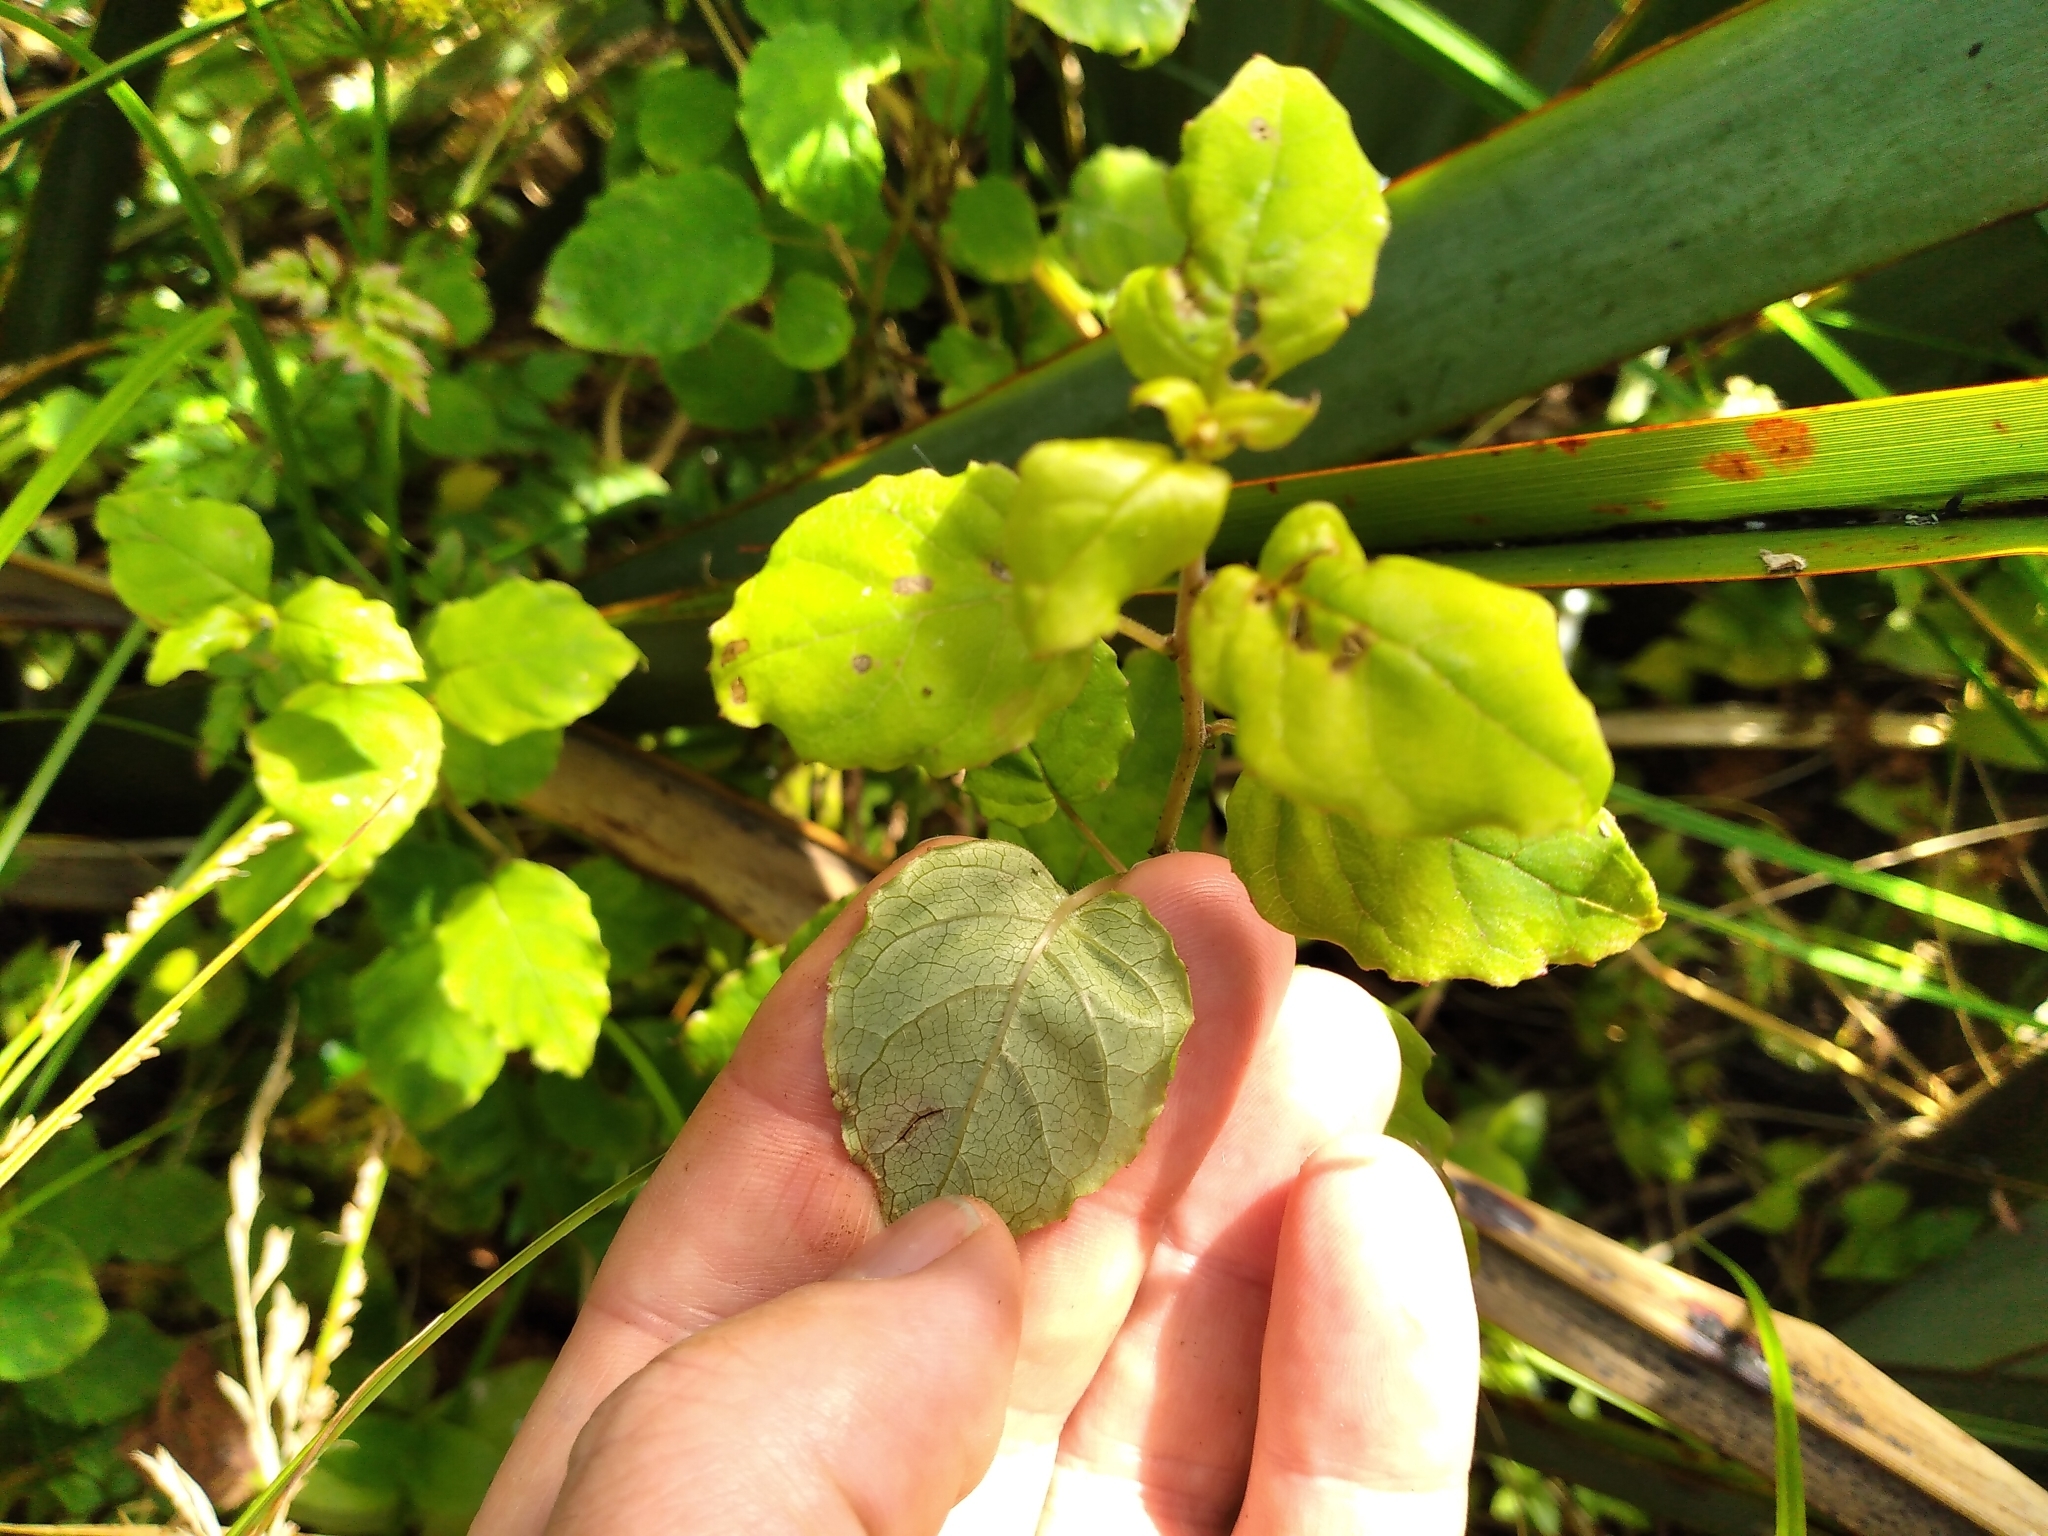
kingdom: Plantae
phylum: Tracheophyta
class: Magnoliopsida
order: Myrtales
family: Onagraceae
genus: Fuchsia
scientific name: Fuchsia perscandens
